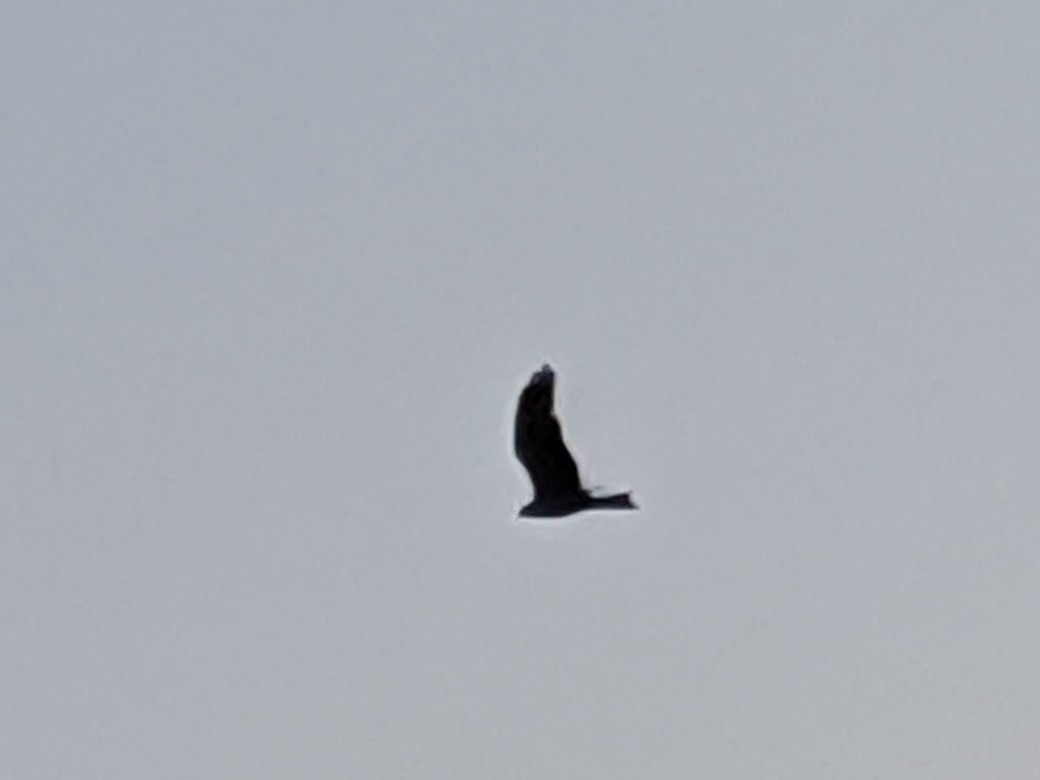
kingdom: Animalia
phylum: Chordata
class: Aves
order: Accipitriformes
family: Accipitridae
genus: Milvus
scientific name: Milvus migrans
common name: Black kite
